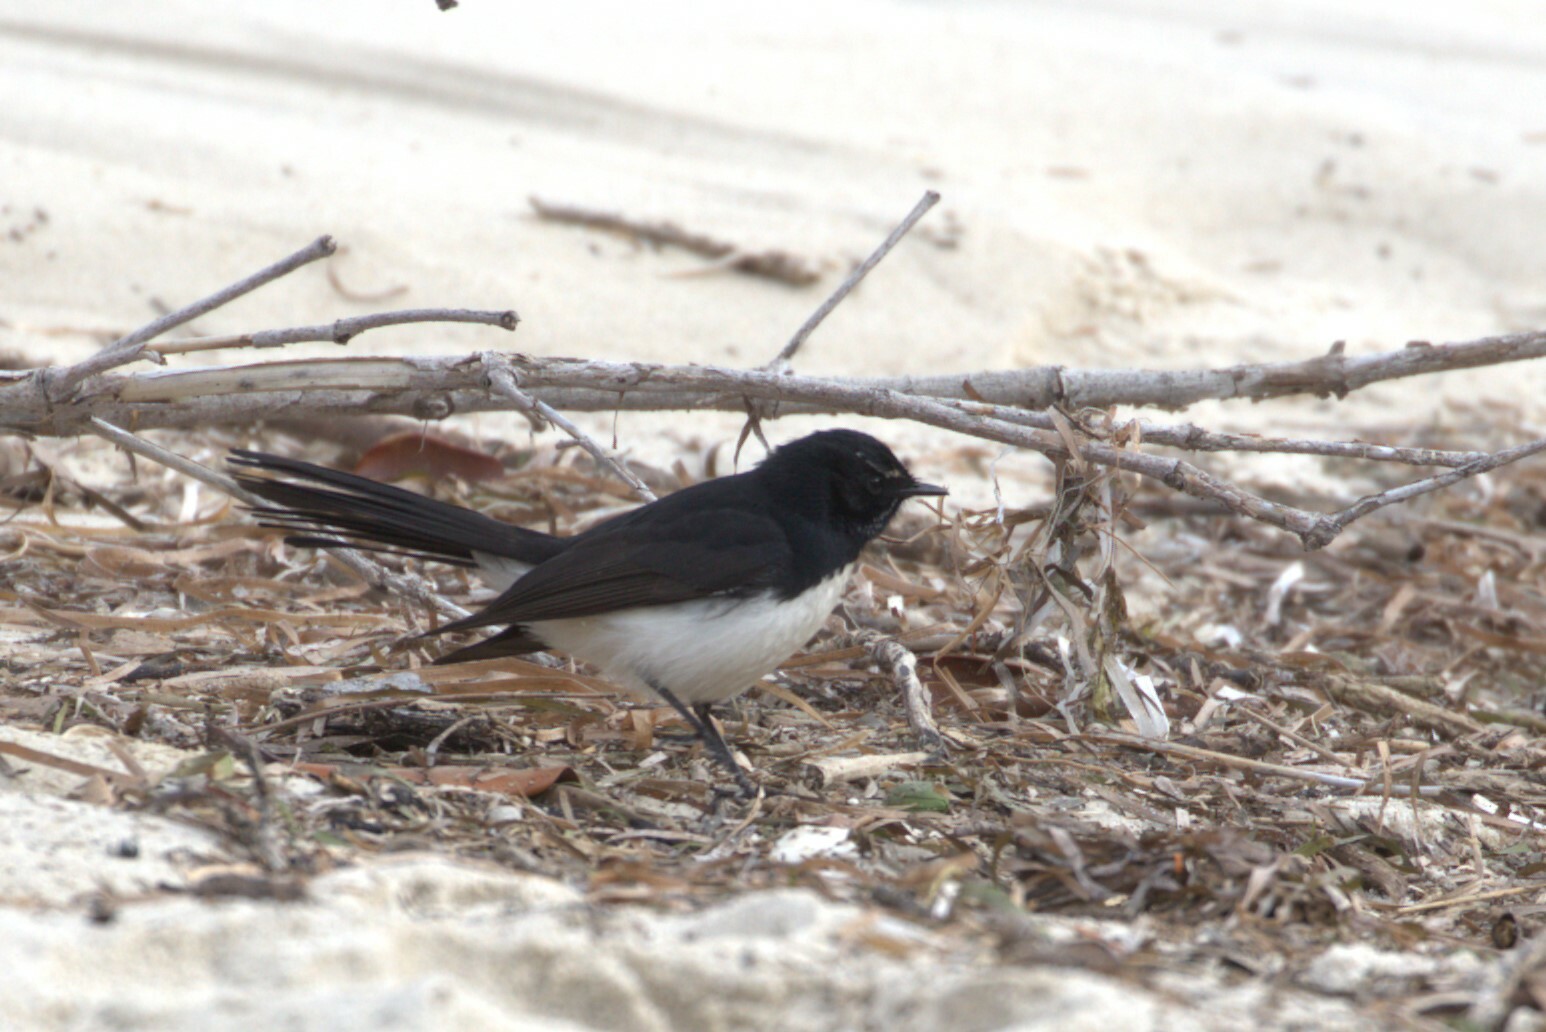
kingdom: Animalia
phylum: Chordata
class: Aves
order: Passeriformes
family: Rhipiduridae
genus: Rhipidura
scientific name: Rhipidura leucophrys
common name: Willie wagtail
